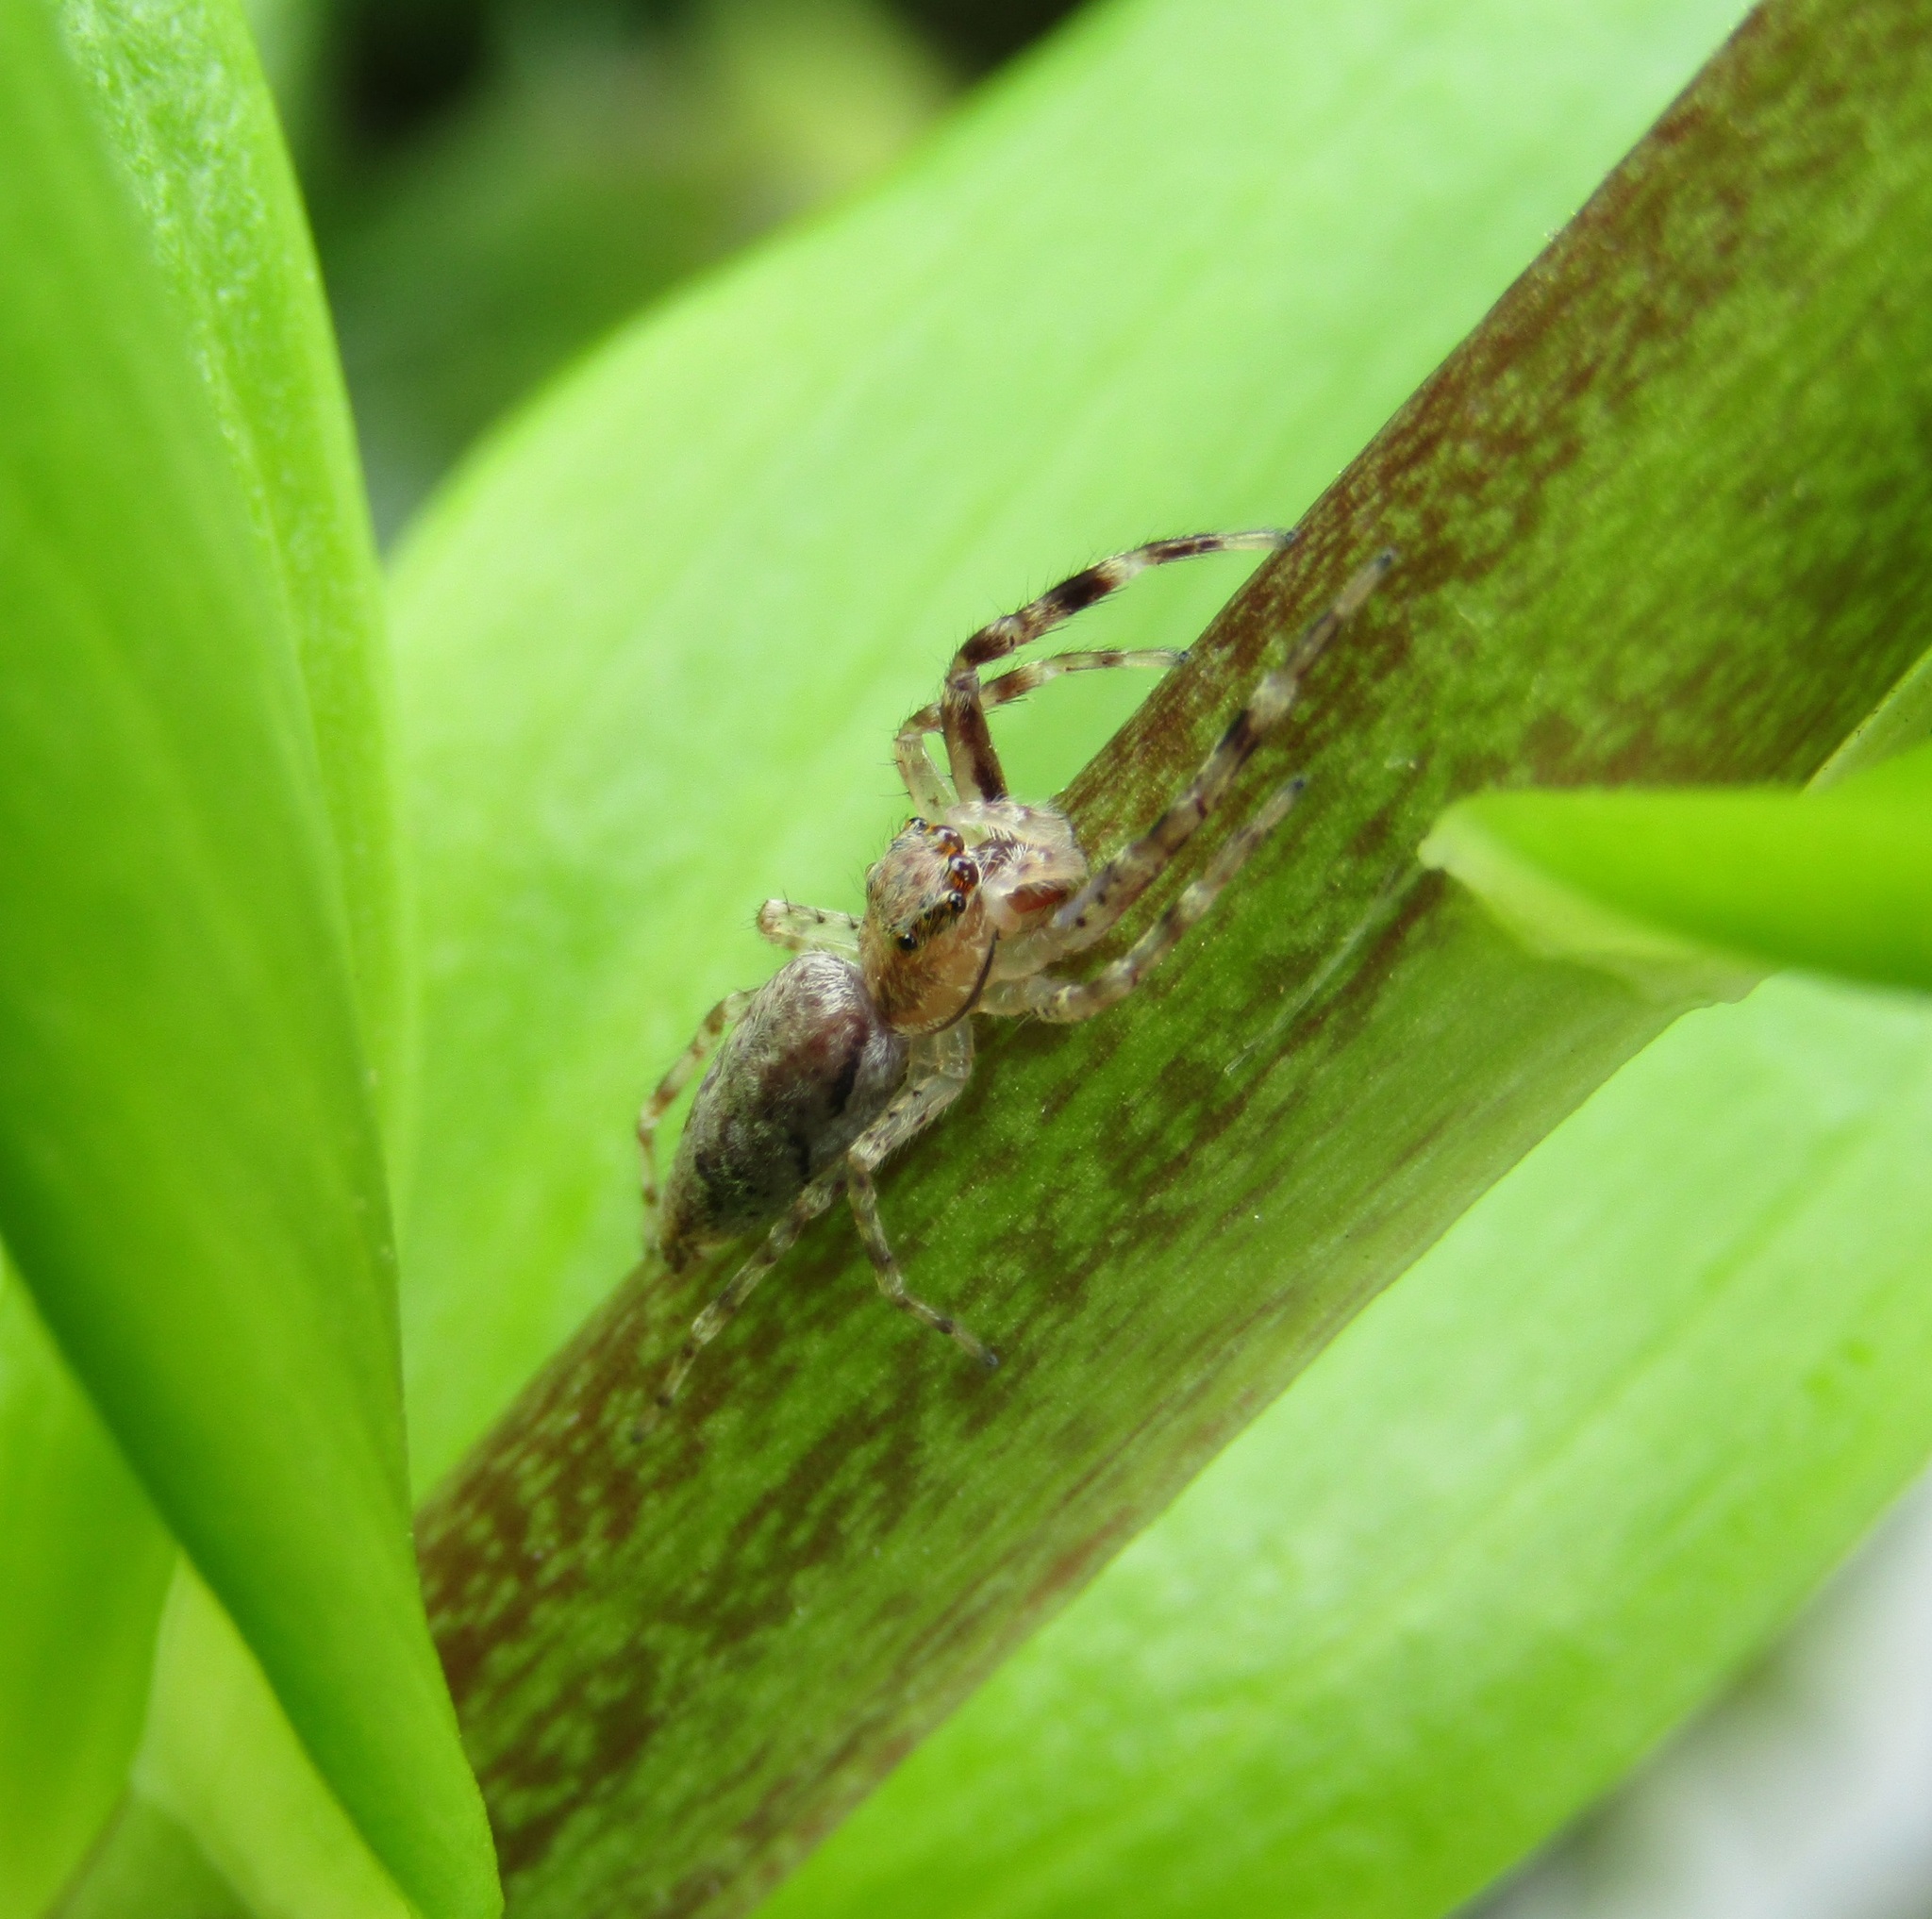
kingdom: Animalia
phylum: Arthropoda
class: Arachnida
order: Araneae
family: Salticidae
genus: Helpis
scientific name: Helpis minitabunda
